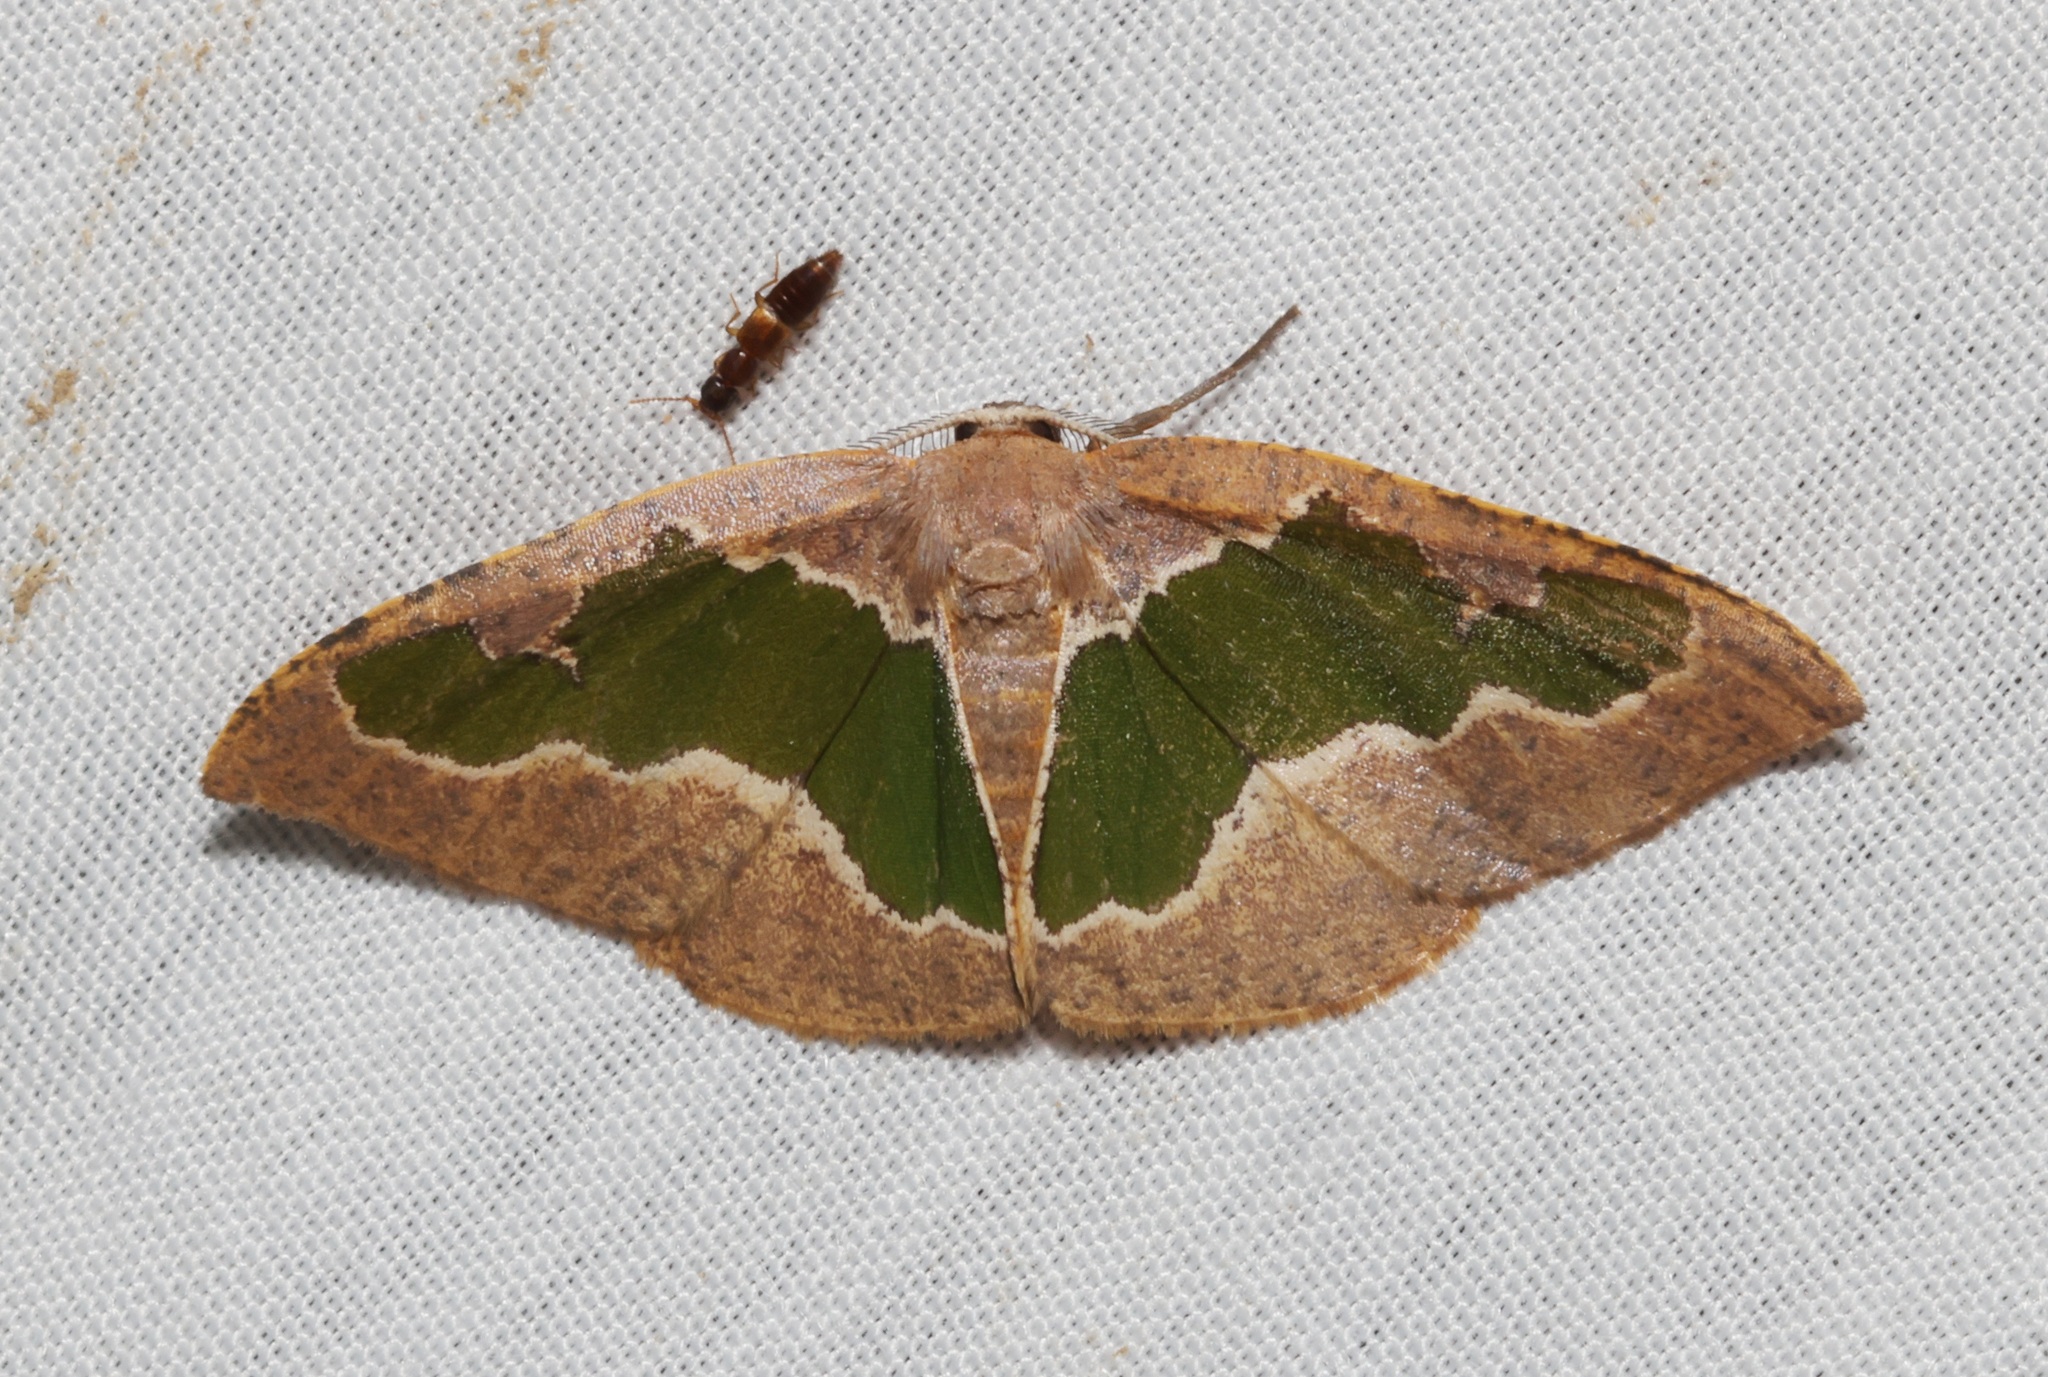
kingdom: Animalia
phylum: Arthropoda
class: Insecta
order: Lepidoptera
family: Geometridae
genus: Celenna
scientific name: Celenna festivaria
